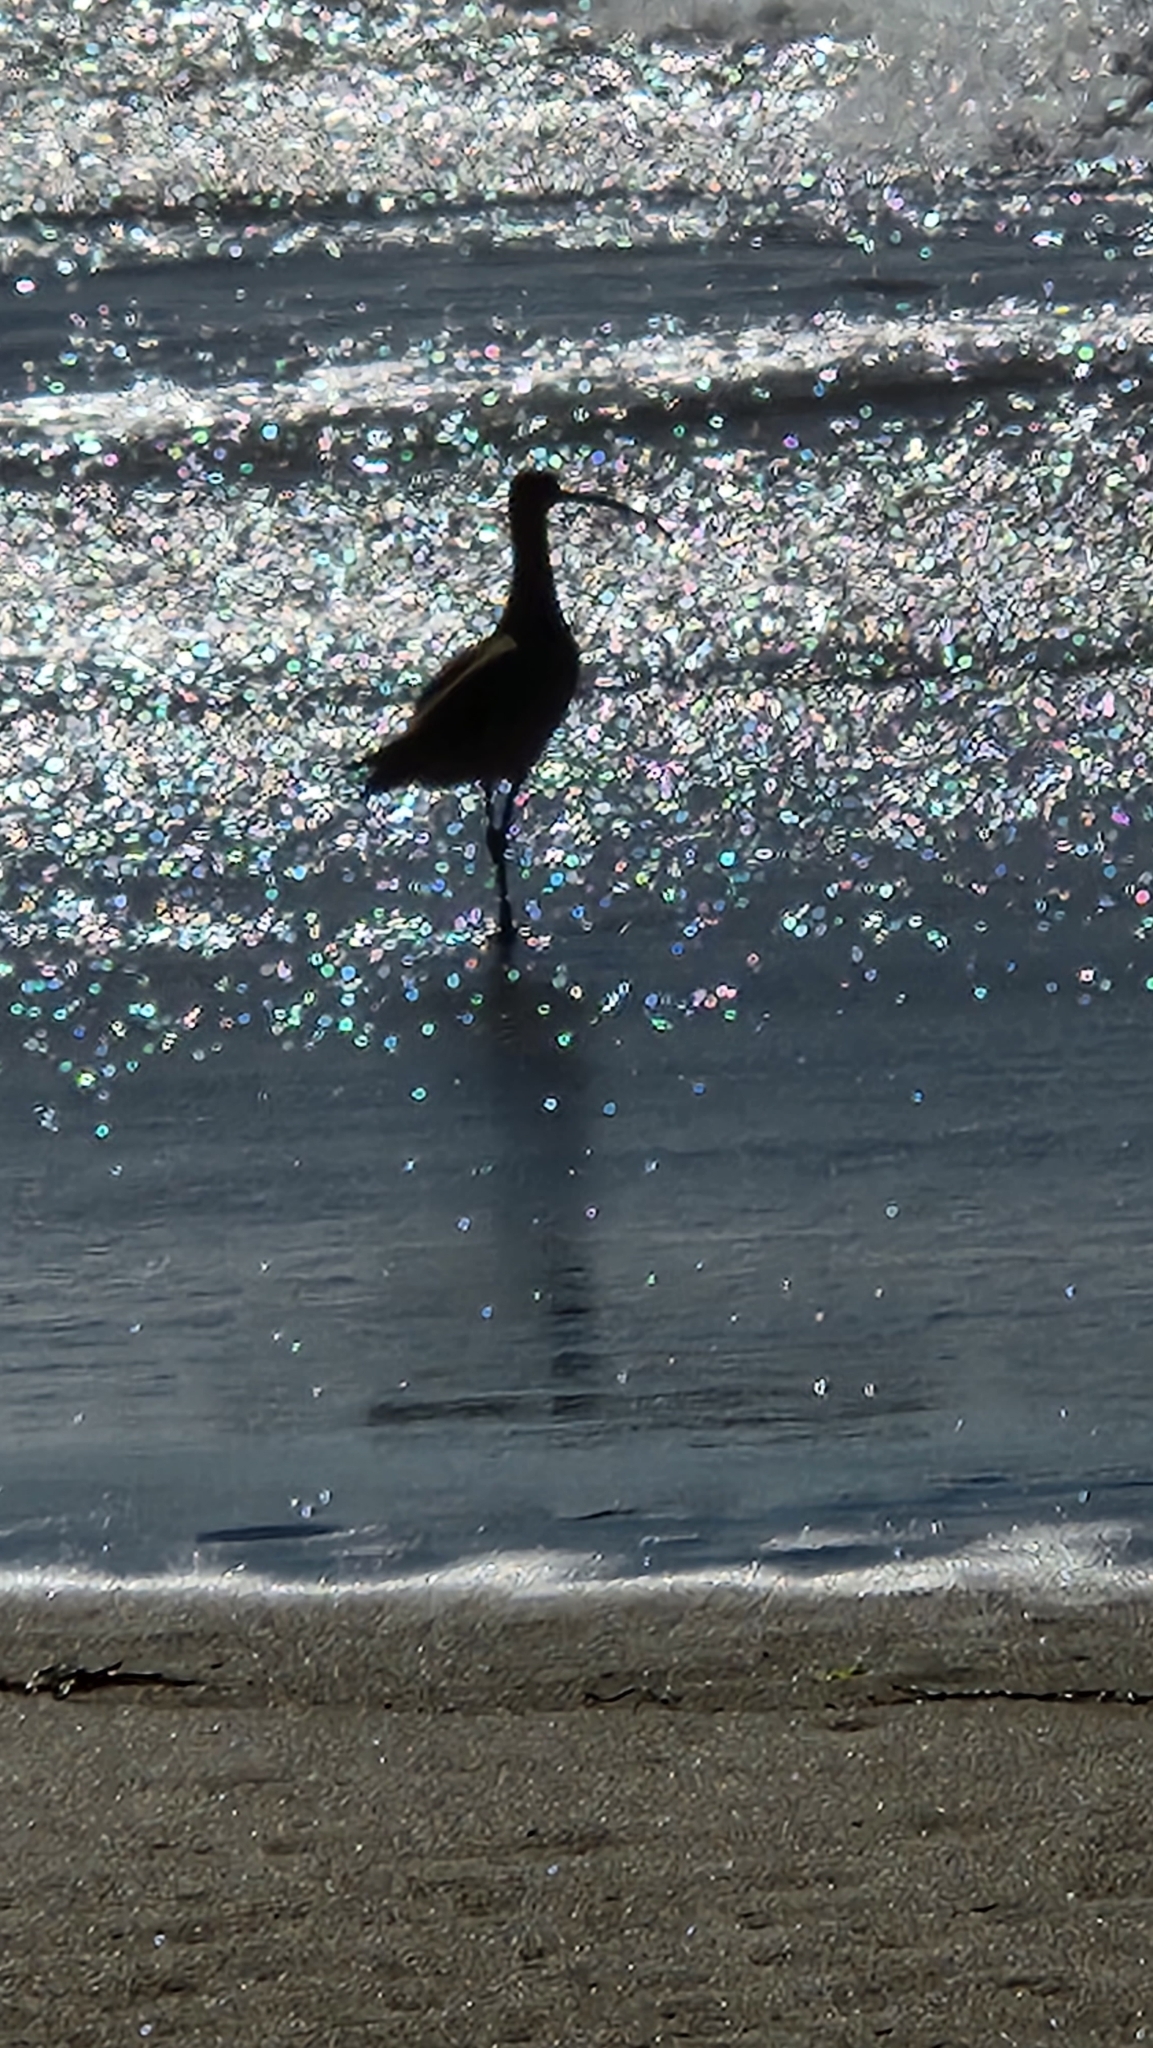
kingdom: Animalia
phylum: Chordata
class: Aves
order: Charadriiformes
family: Scolopacidae
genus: Numenius
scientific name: Numenius americanus
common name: Long-billed curlew
